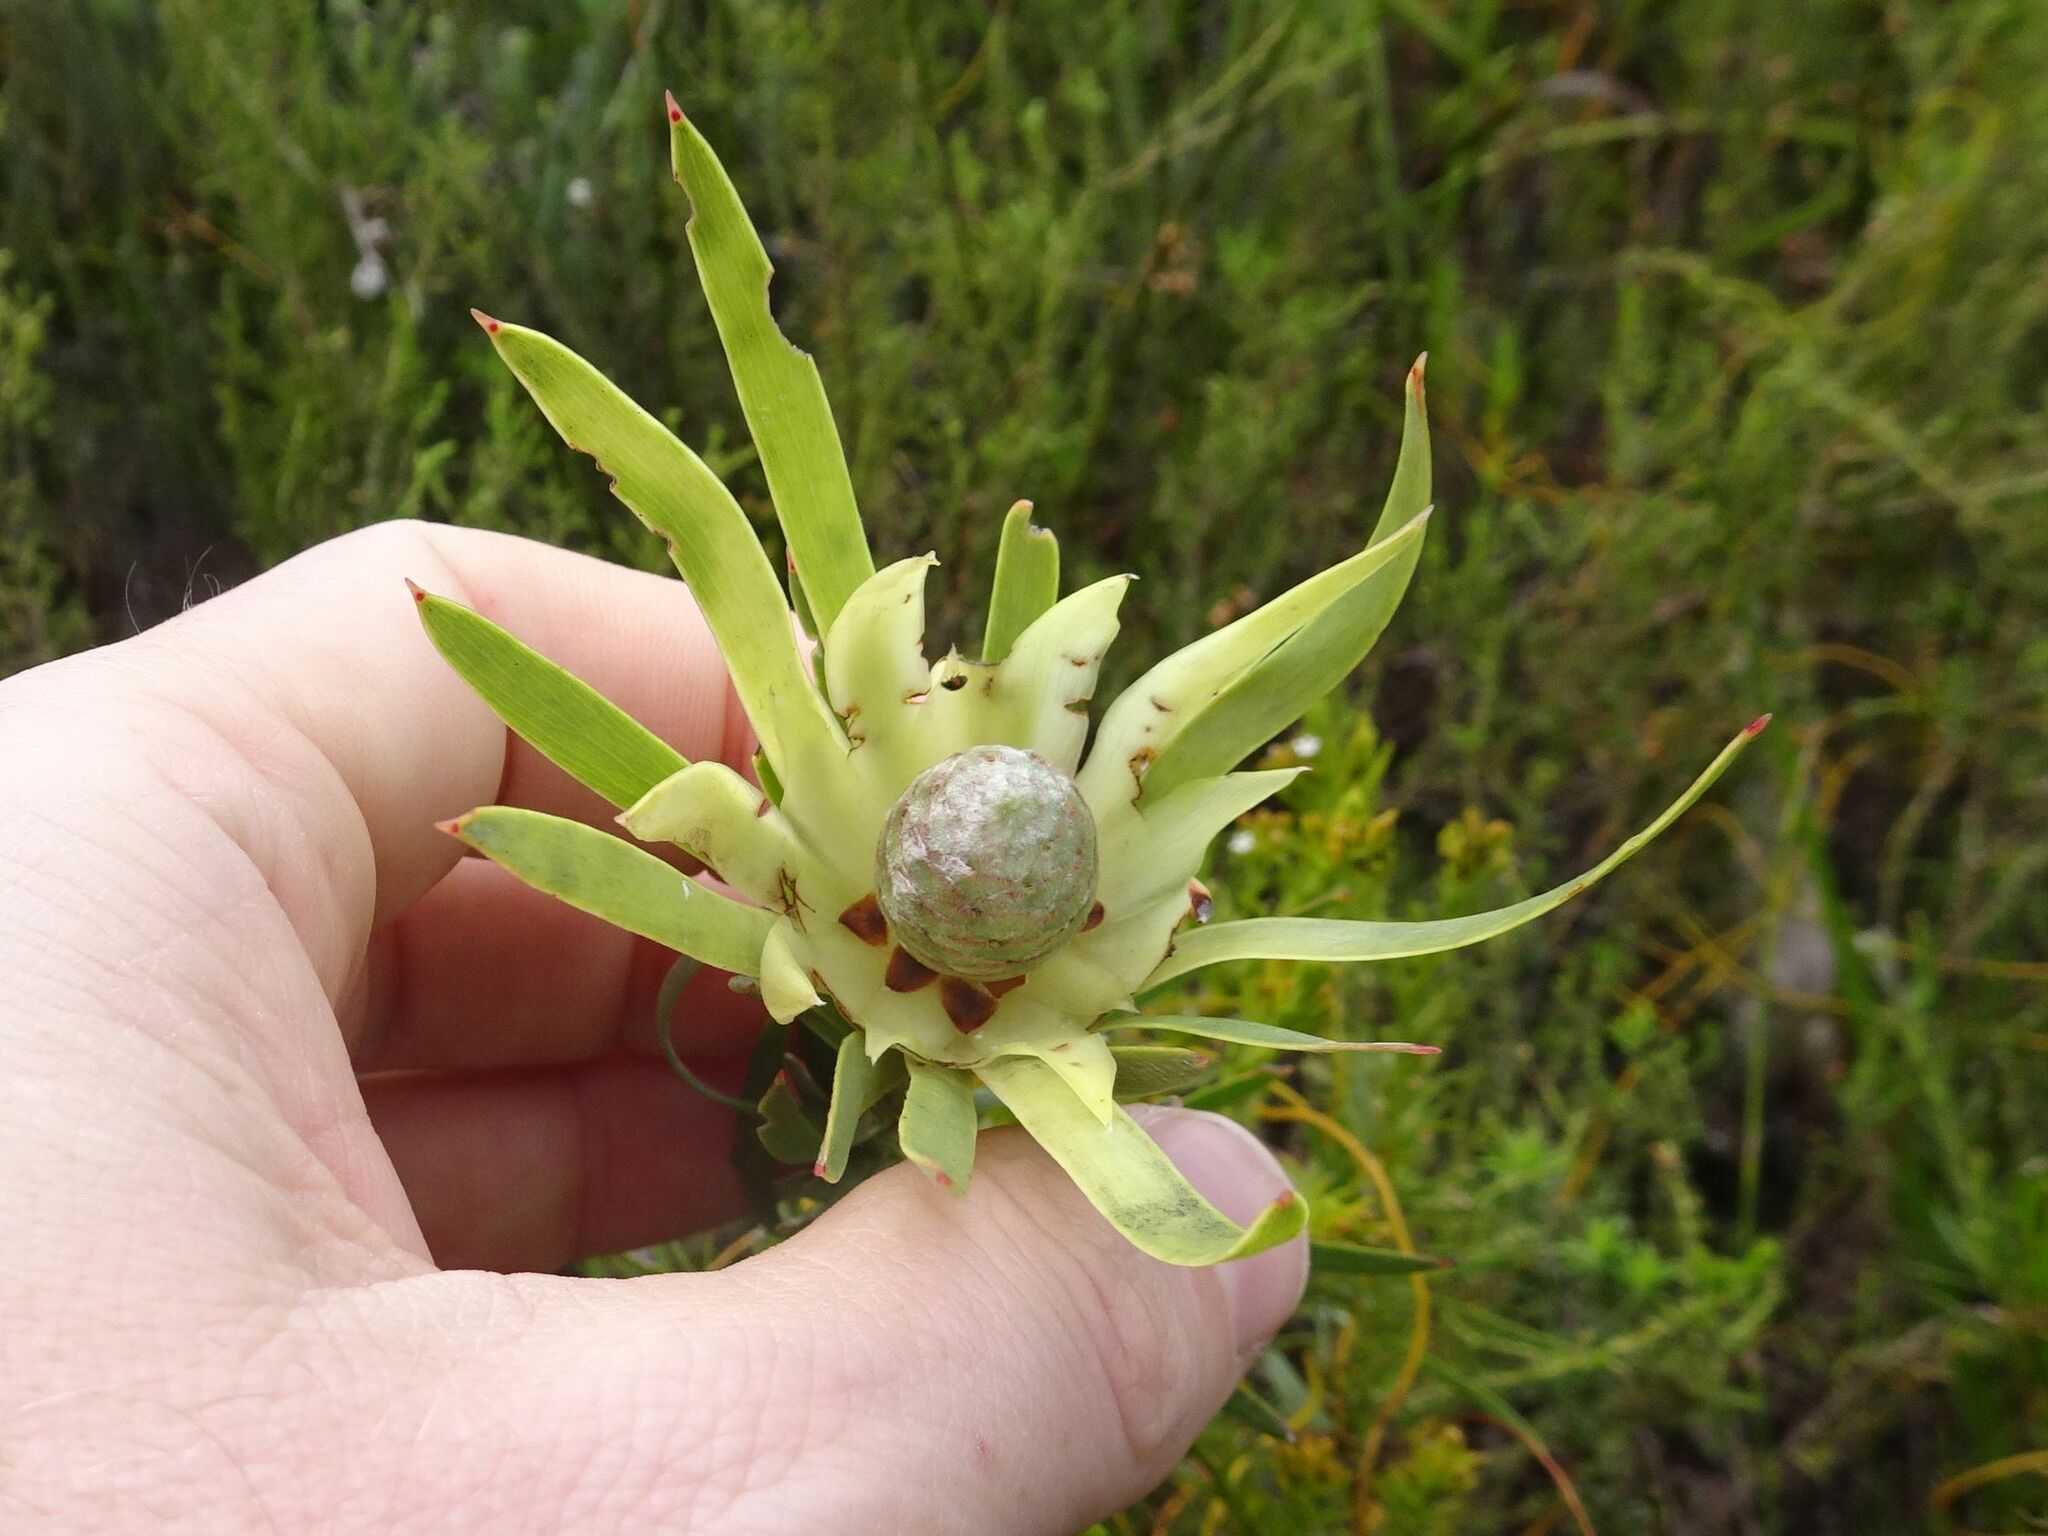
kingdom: Plantae
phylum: Tracheophyta
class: Magnoliopsida
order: Proteales
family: Proteaceae
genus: Leucadendron
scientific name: Leucadendron xanthoconus
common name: Sickle-leaf conebush
